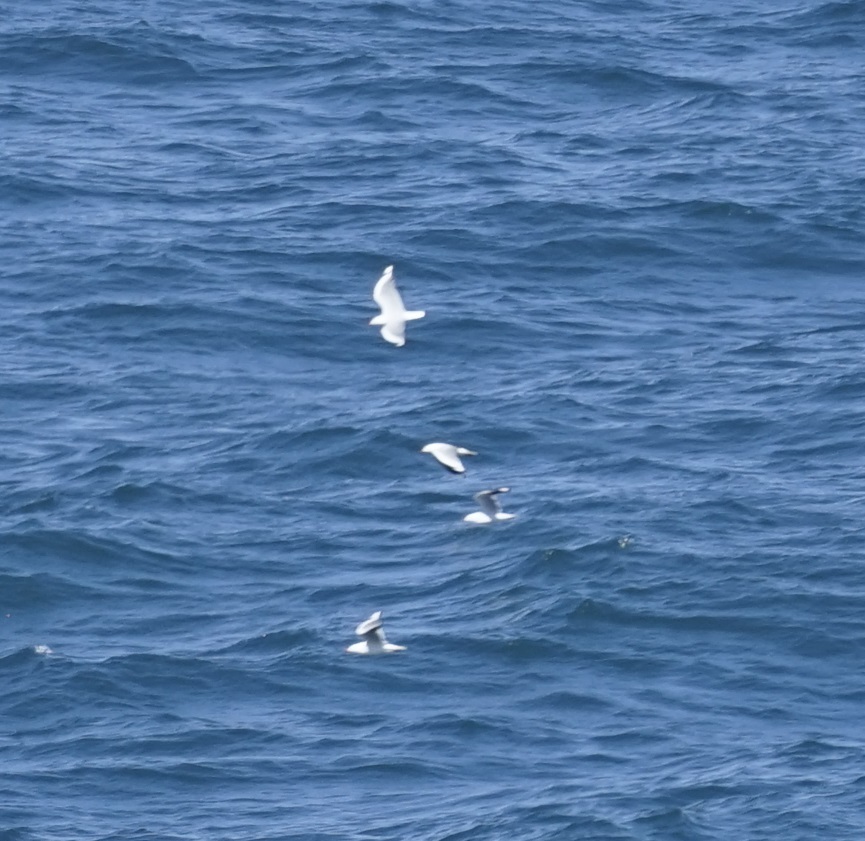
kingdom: Animalia
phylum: Chordata
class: Aves
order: Charadriiformes
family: Laridae
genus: Chroicocephalus
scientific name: Chroicocephalus novaehollandiae
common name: Silver gull
